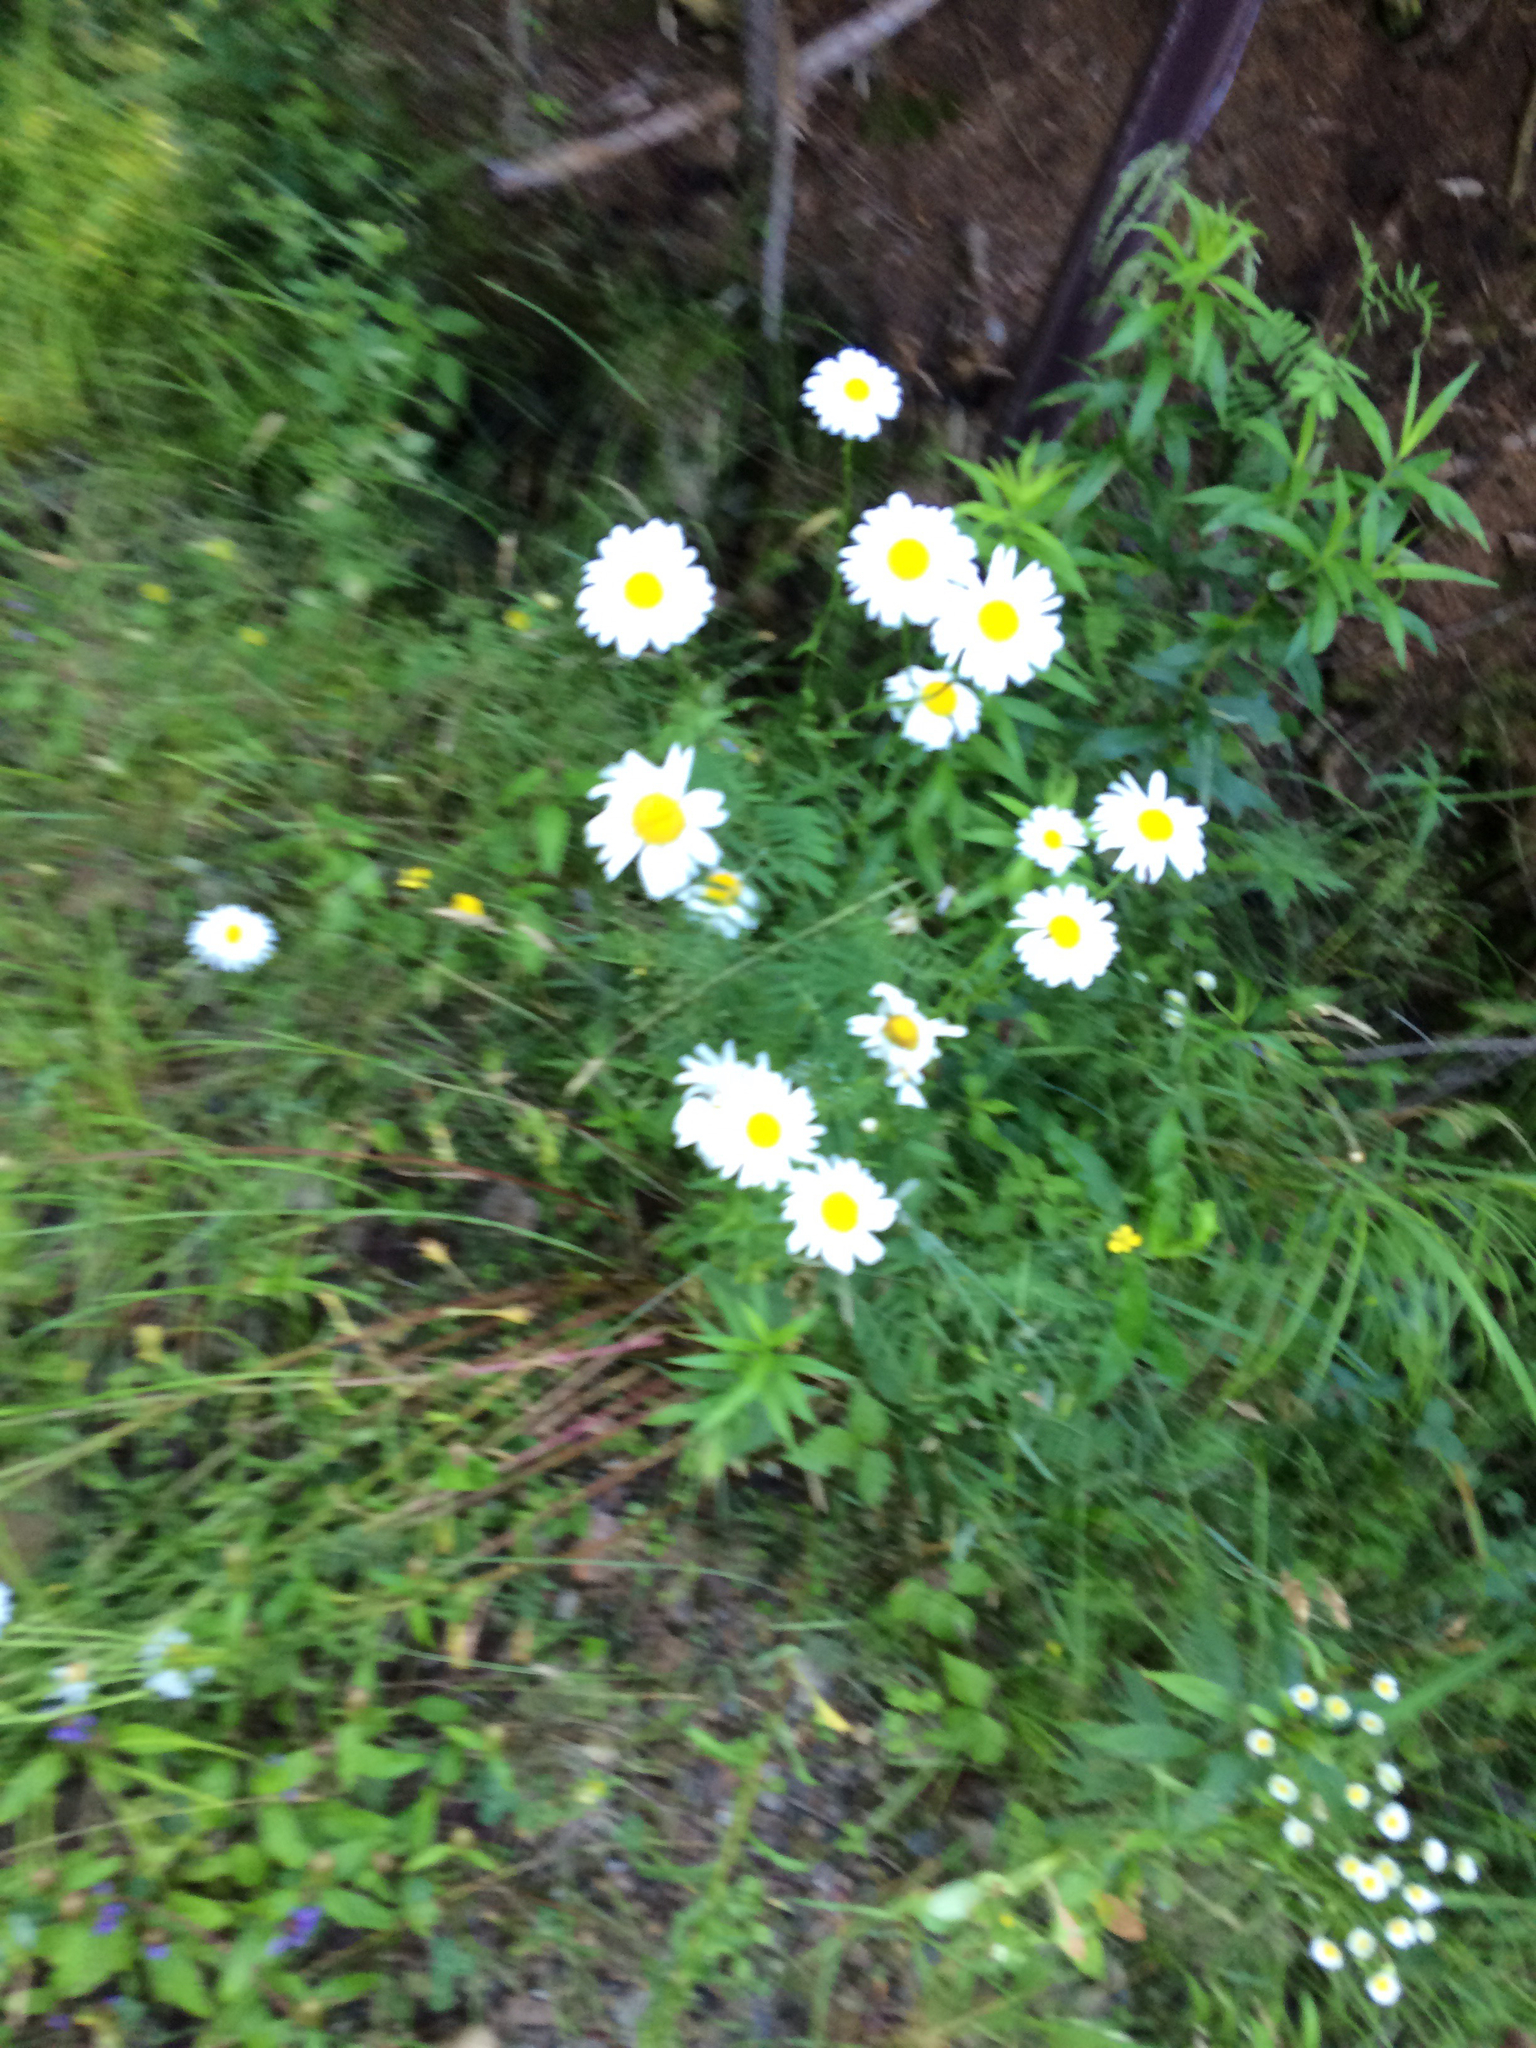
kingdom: Plantae
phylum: Tracheophyta
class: Magnoliopsida
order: Asterales
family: Asteraceae
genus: Leucanthemum
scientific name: Leucanthemum vulgare
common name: Oxeye daisy
